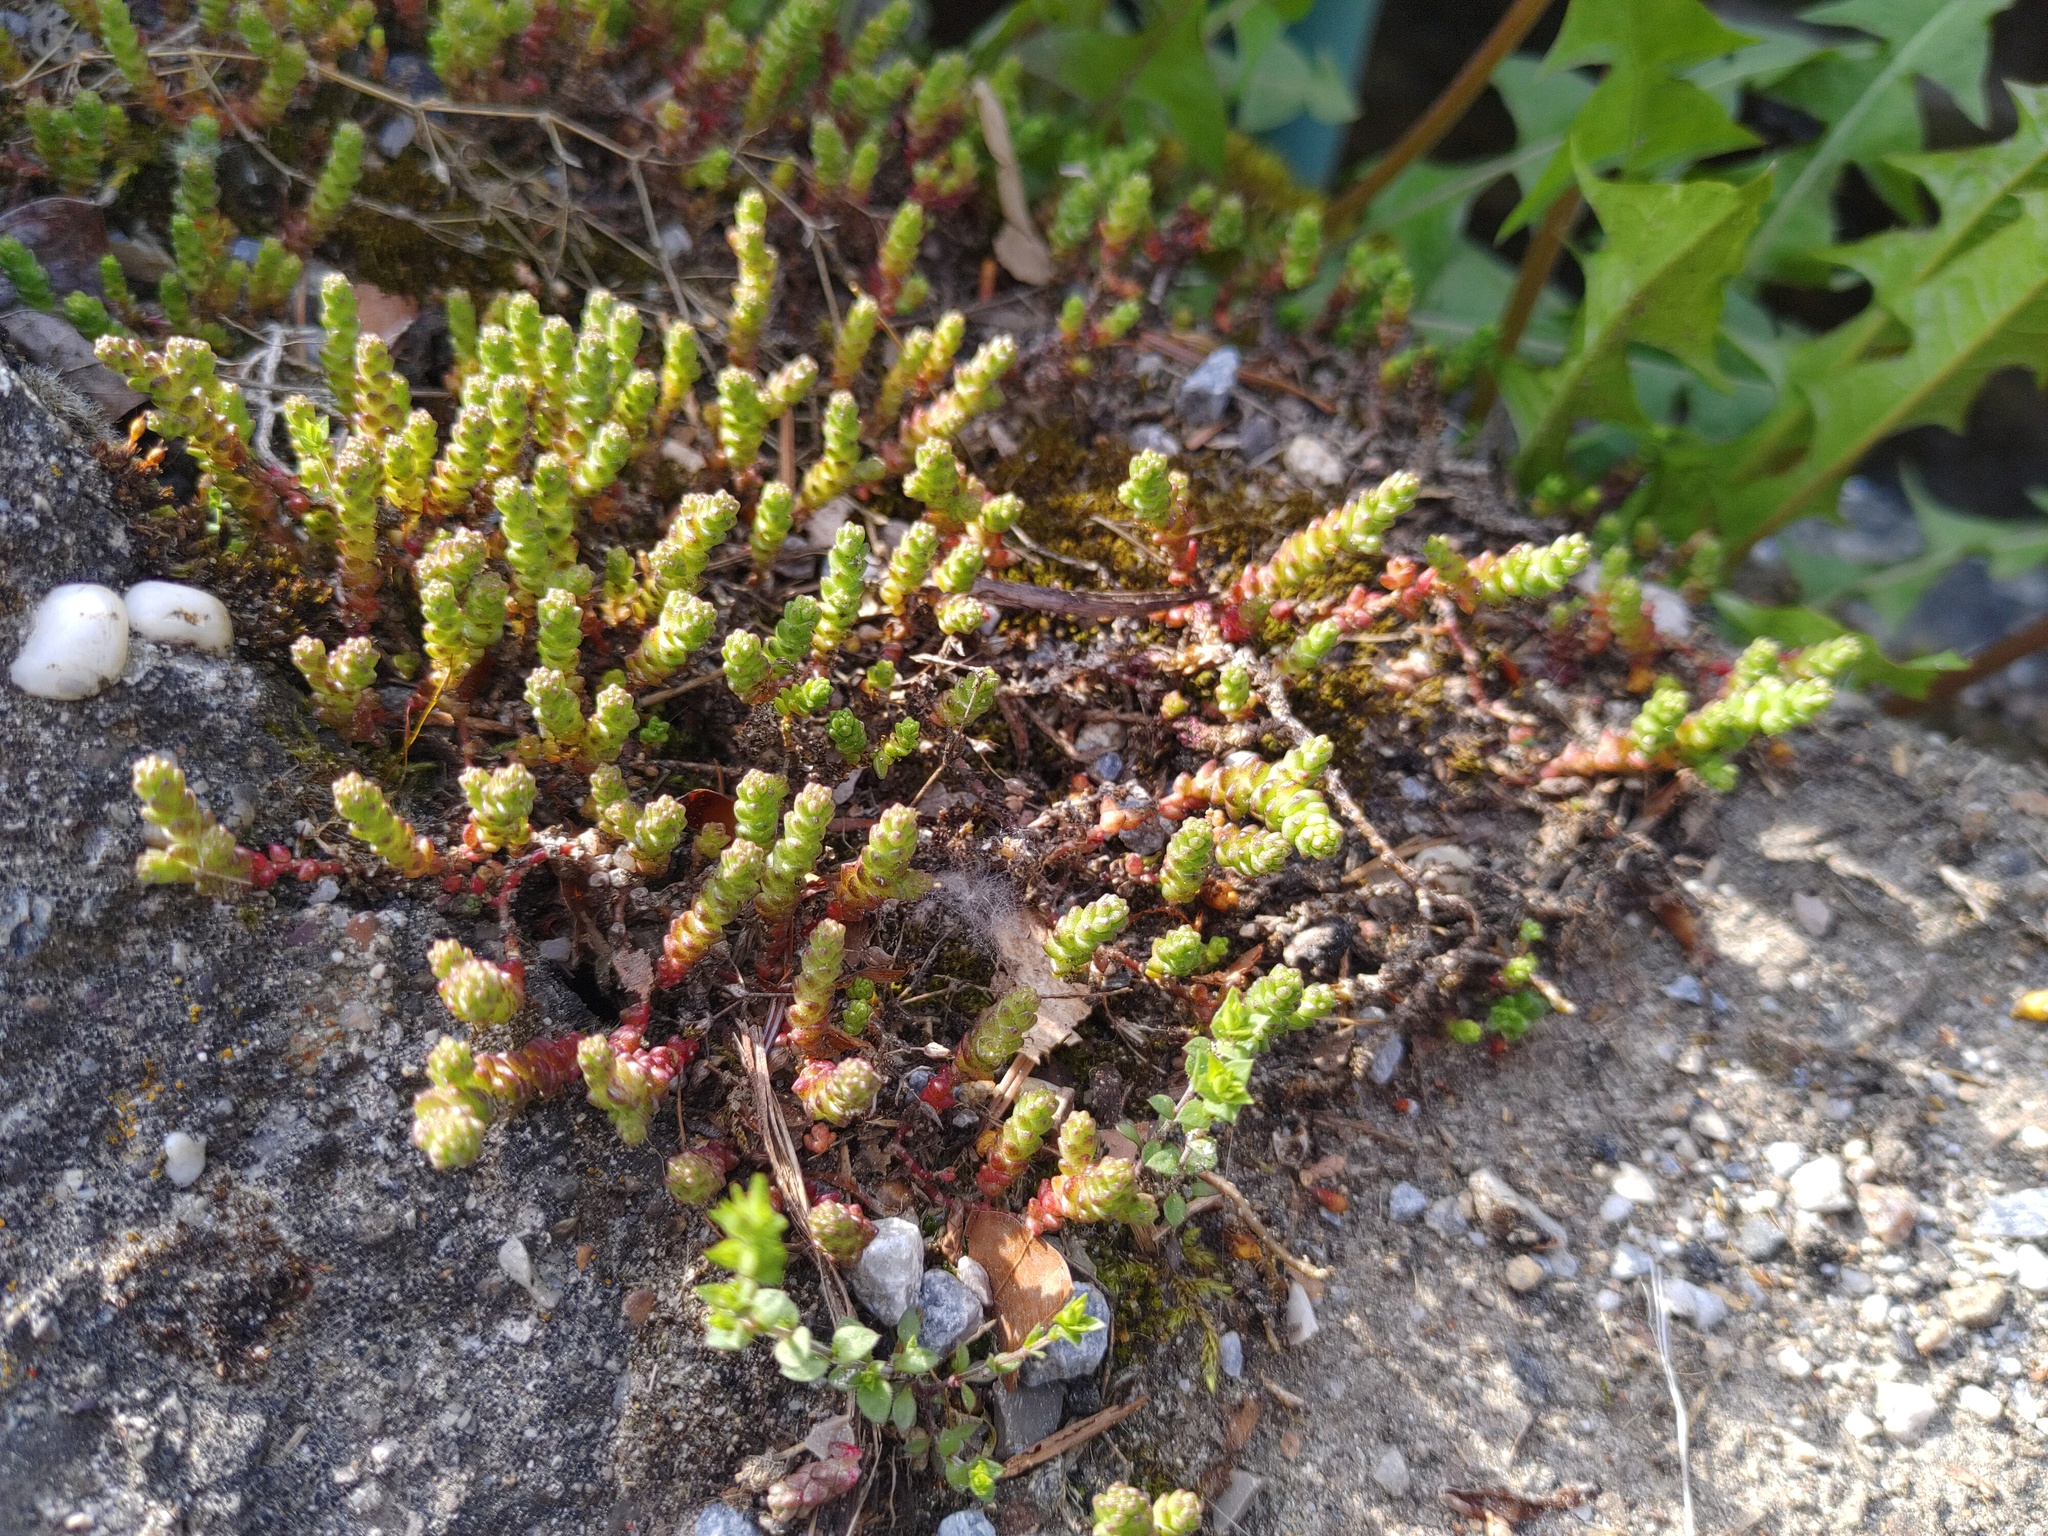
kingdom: Plantae
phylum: Tracheophyta
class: Magnoliopsida
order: Saxifragales
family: Crassulaceae
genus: Sedum
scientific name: Sedum acre
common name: Biting stonecrop
